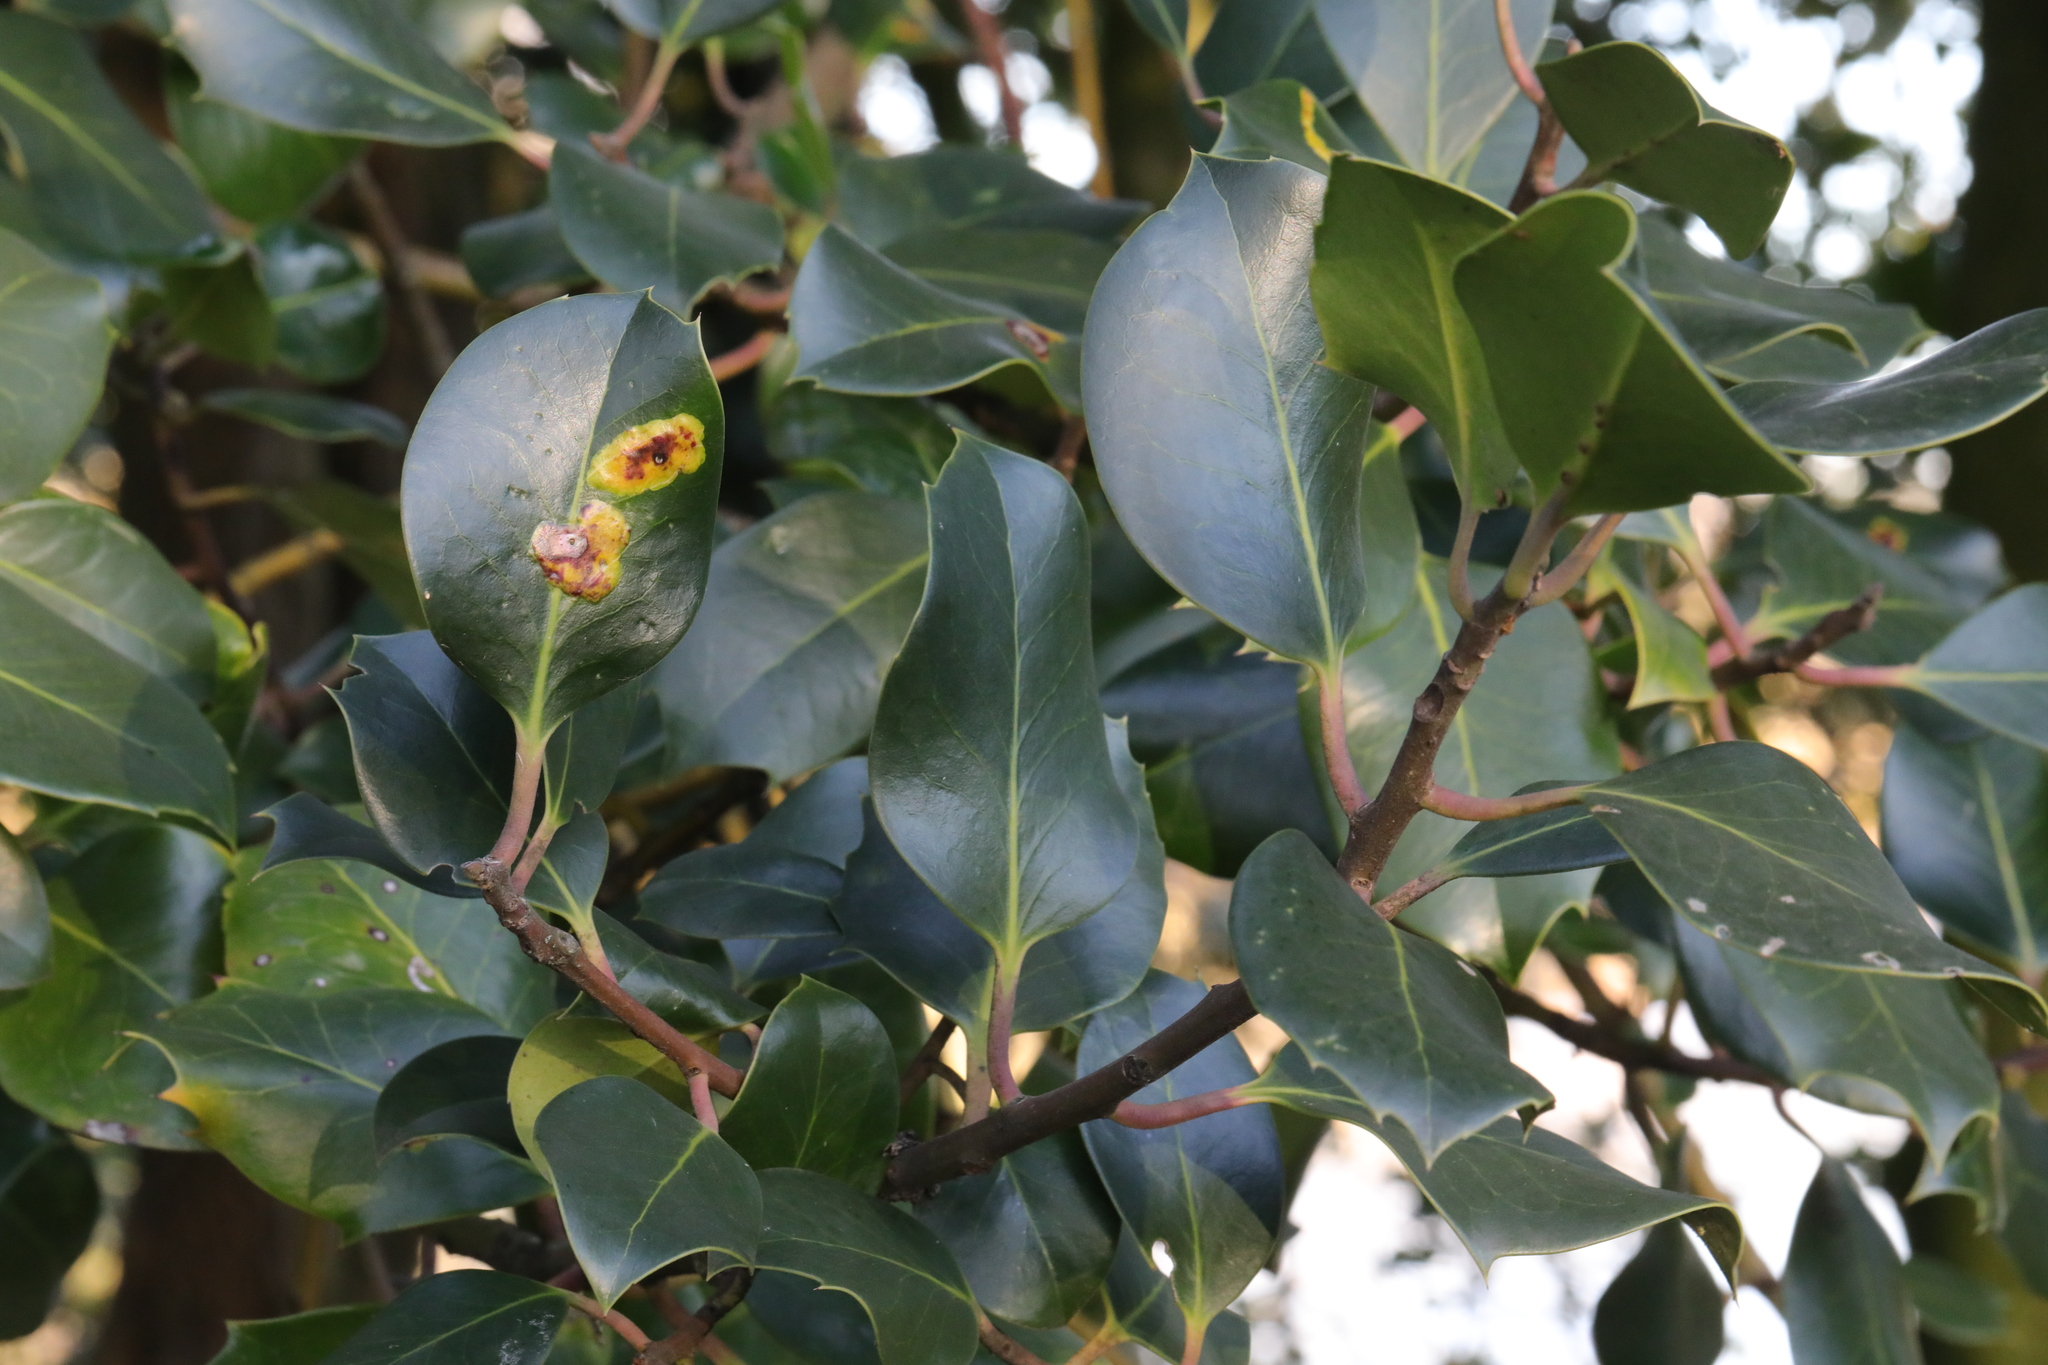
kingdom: Animalia
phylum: Arthropoda
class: Insecta
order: Diptera
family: Agromyzidae
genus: Phytomyza
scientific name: Phytomyza ilicis
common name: Holly leafminer
